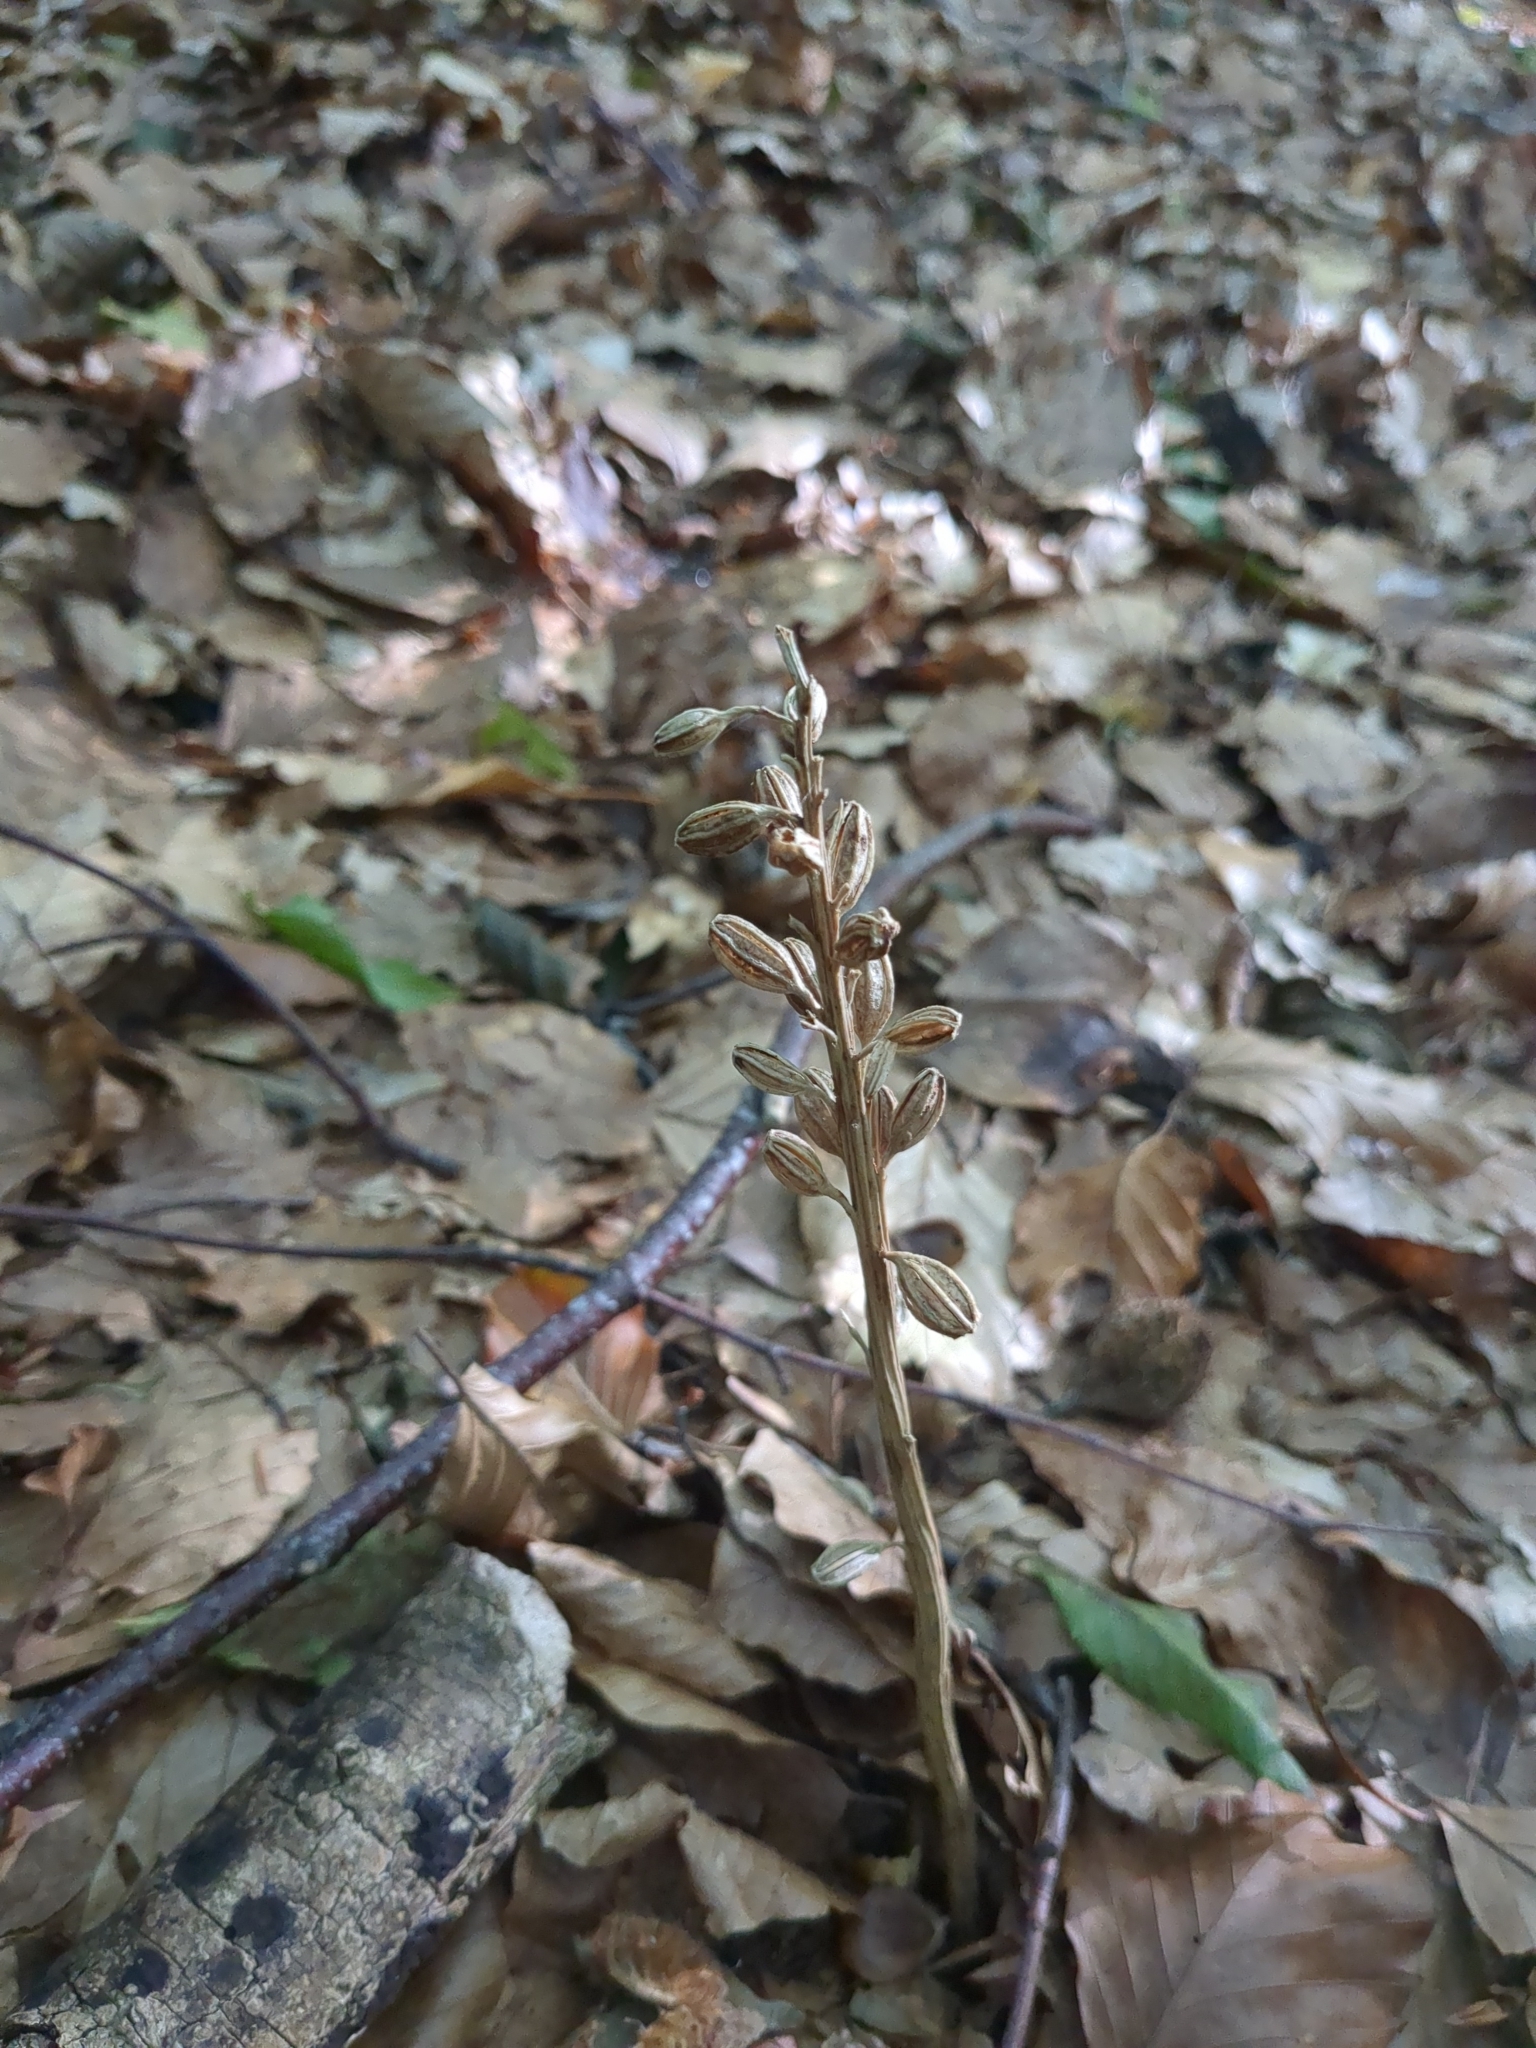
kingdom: Plantae
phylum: Tracheophyta
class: Liliopsida
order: Asparagales
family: Orchidaceae
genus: Neottia
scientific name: Neottia nidus-avis
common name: Bird's-nest orchid
